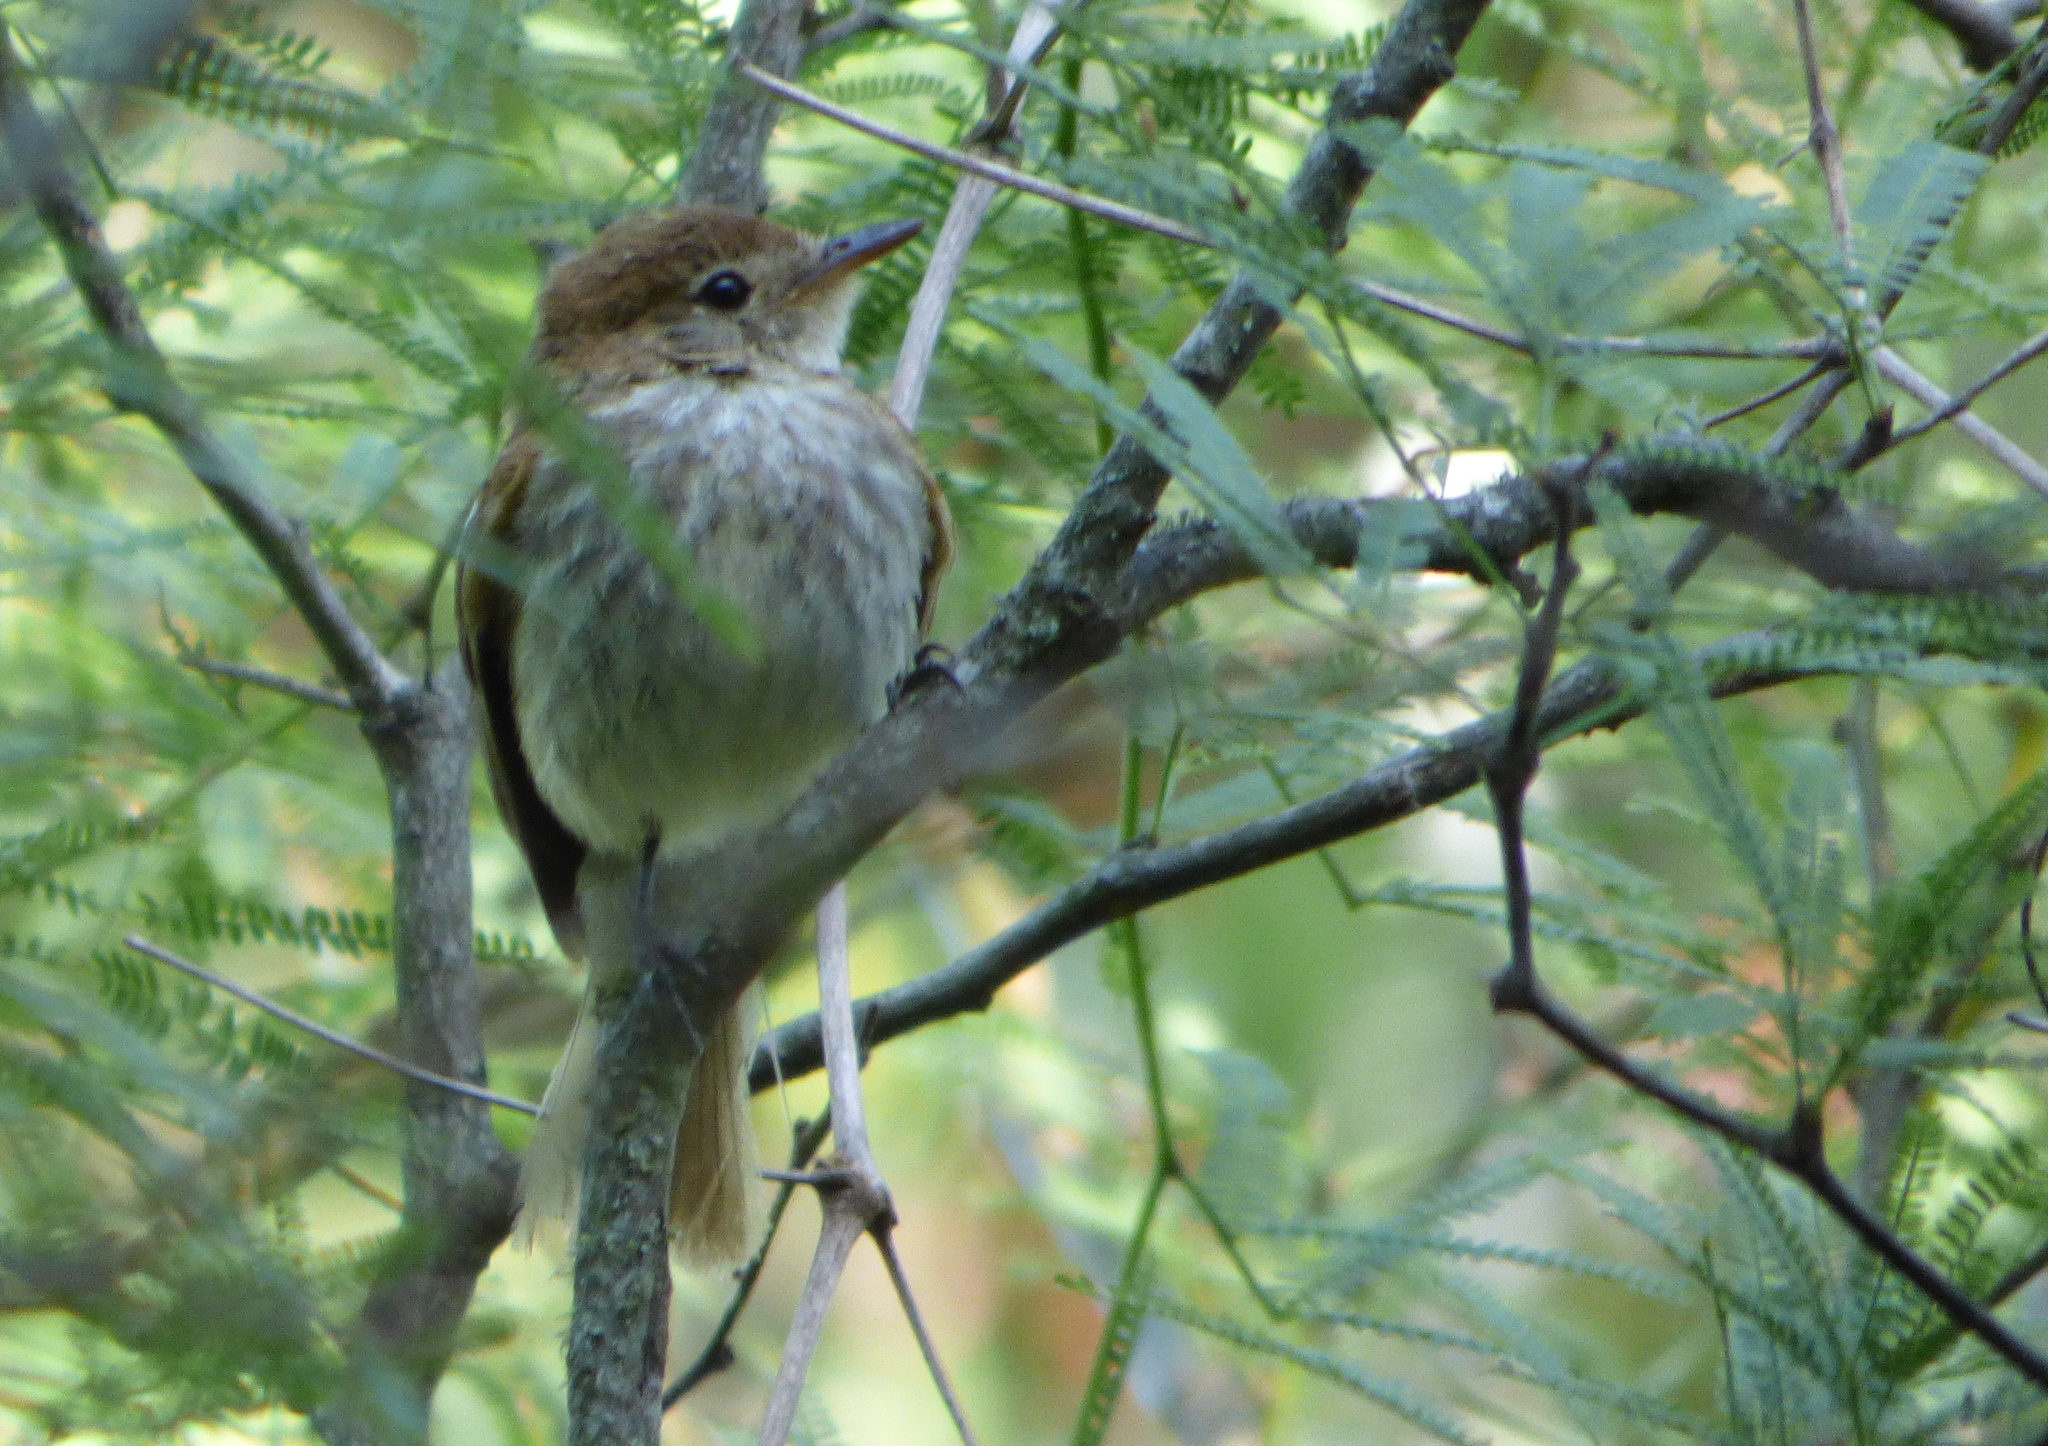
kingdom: Animalia
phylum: Chordata
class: Aves
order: Passeriformes
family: Tyrannidae
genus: Myiophobus
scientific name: Myiophobus fasciatus
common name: Bran-colored flycatcher
